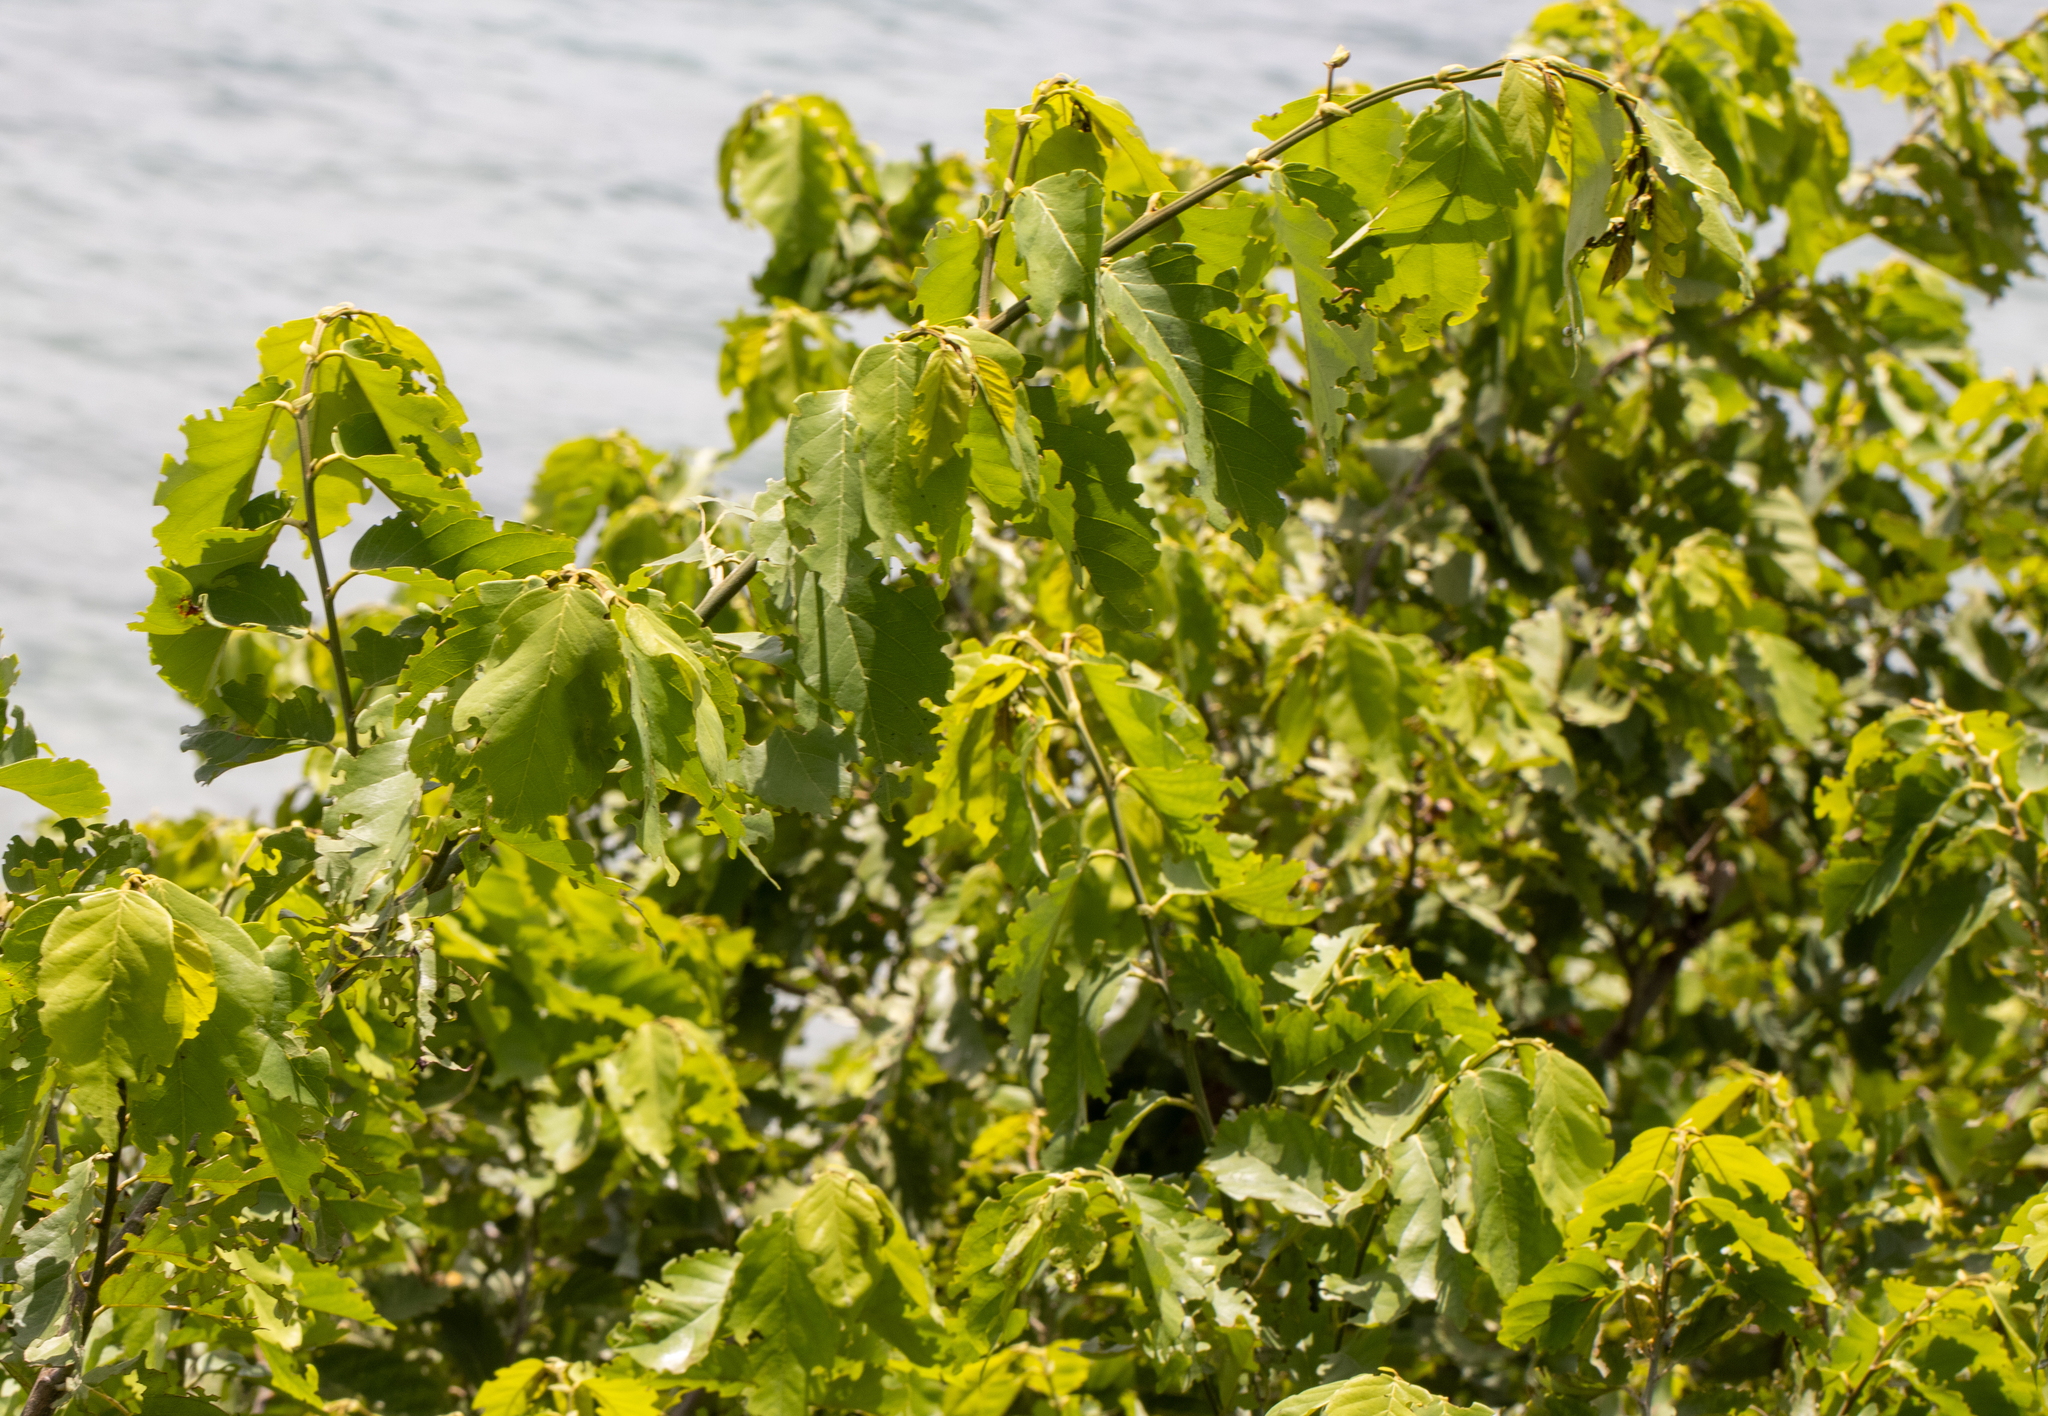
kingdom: Plantae
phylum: Tracheophyta
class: Magnoliopsida
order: Fabales
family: Fabaceae
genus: Dalbergia
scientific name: Dalbergia ecastaphyllum
